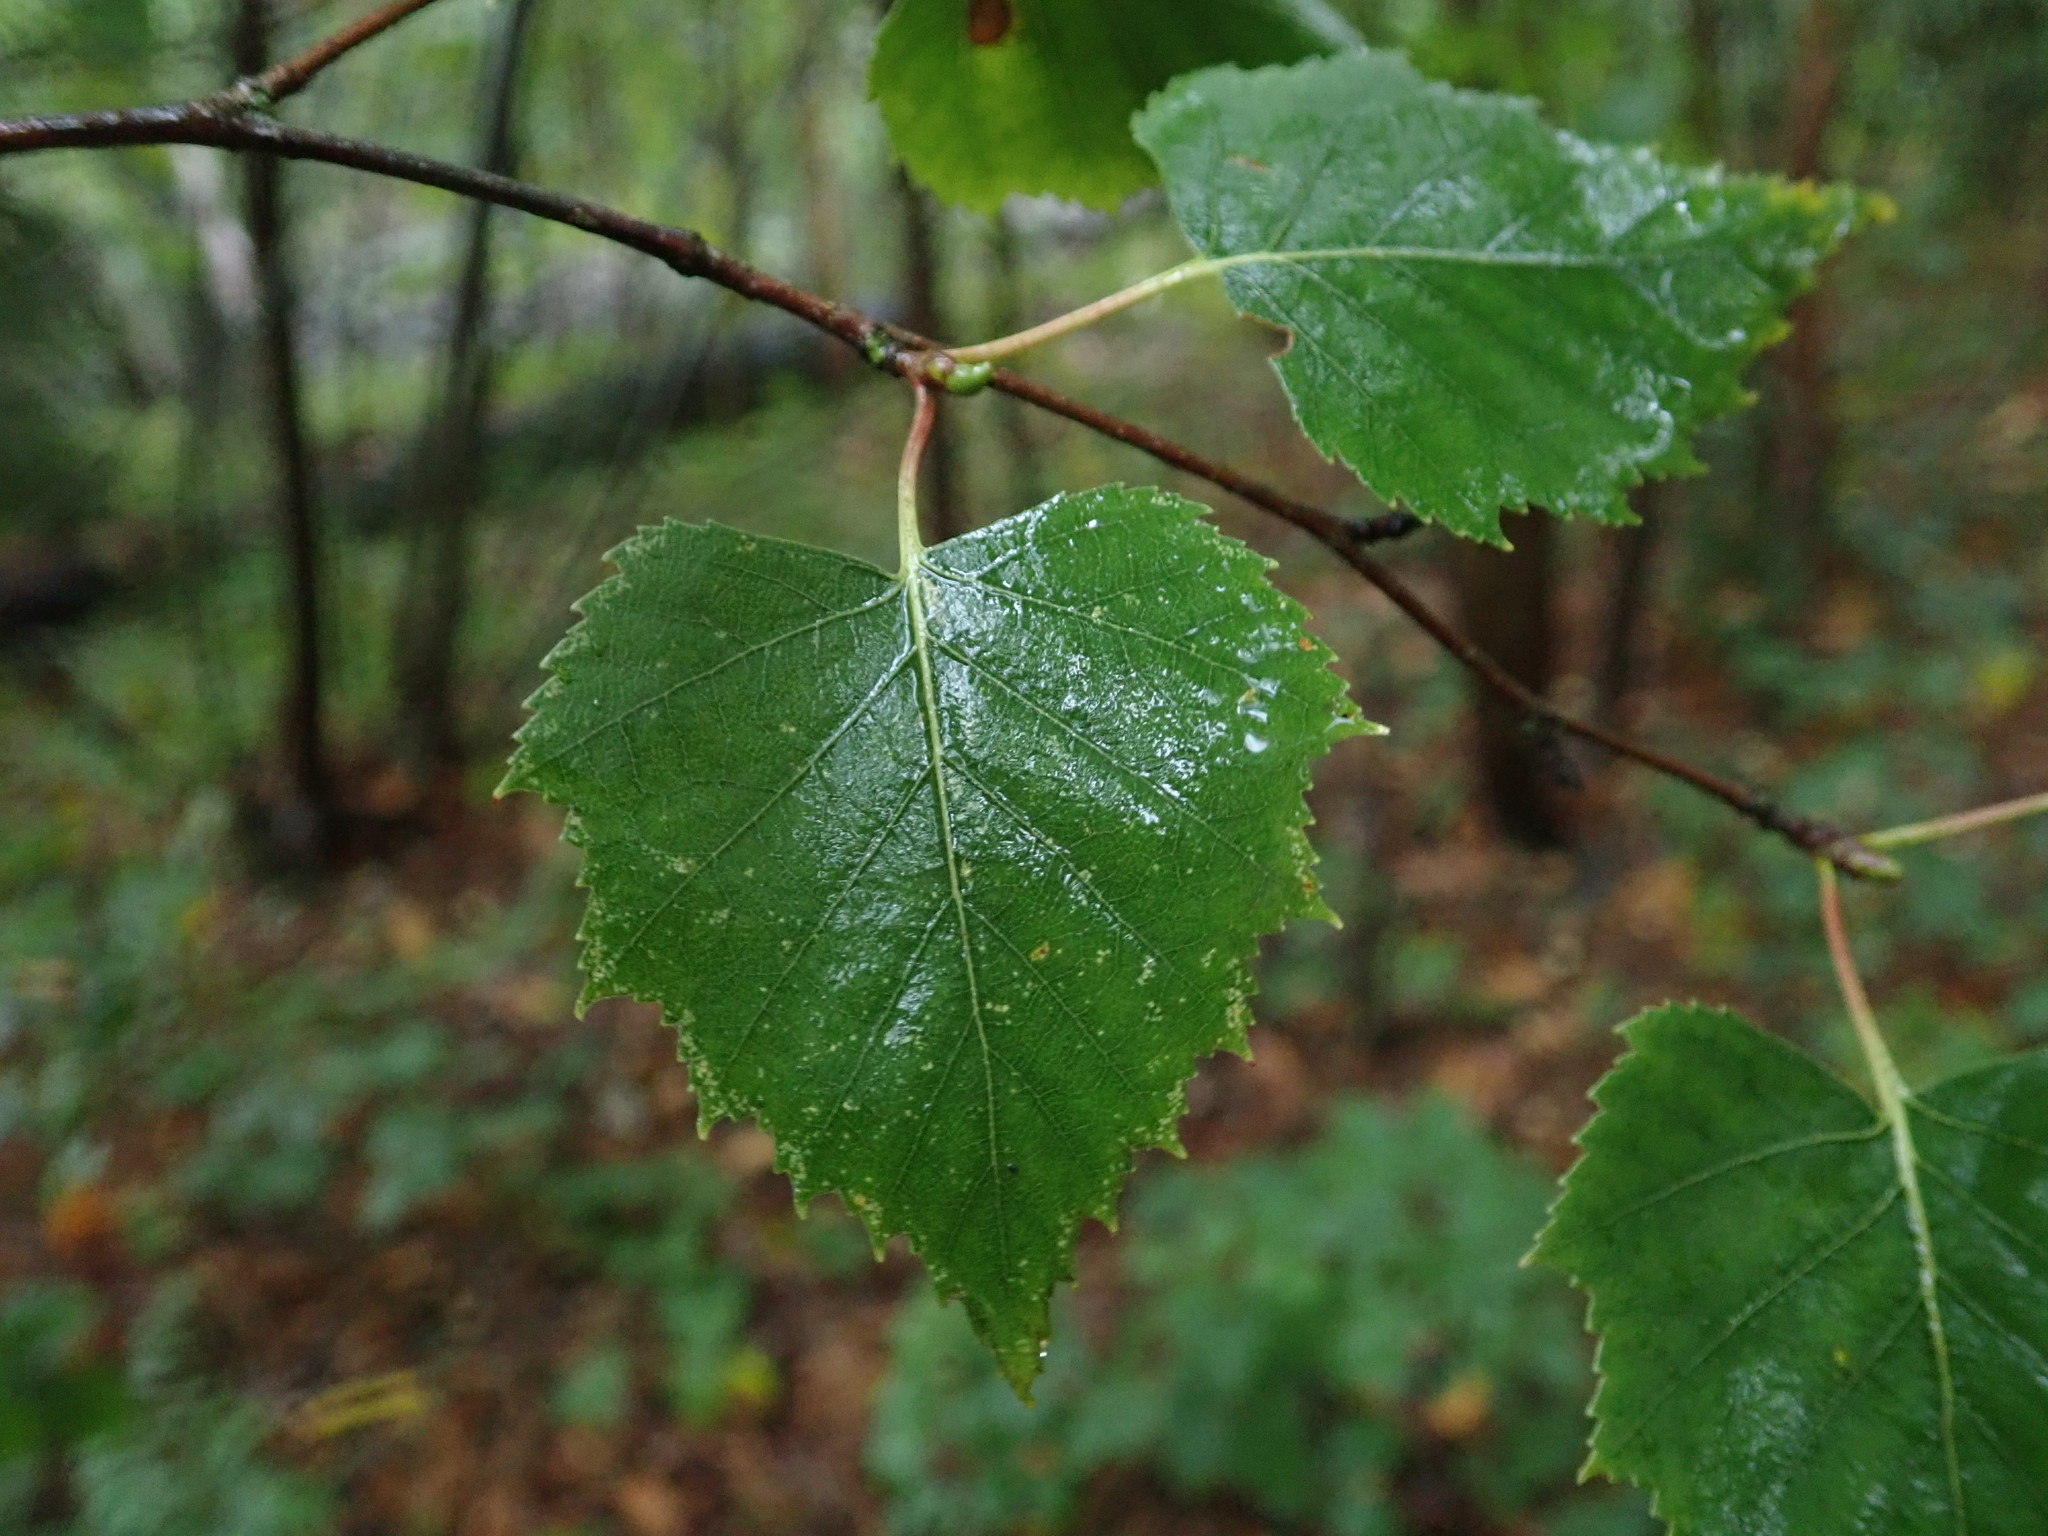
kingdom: Plantae
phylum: Tracheophyta
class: Magnoliopsida
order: Fagales
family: Betulaceae
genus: Betula
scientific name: Betula pendula
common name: Silver birch
